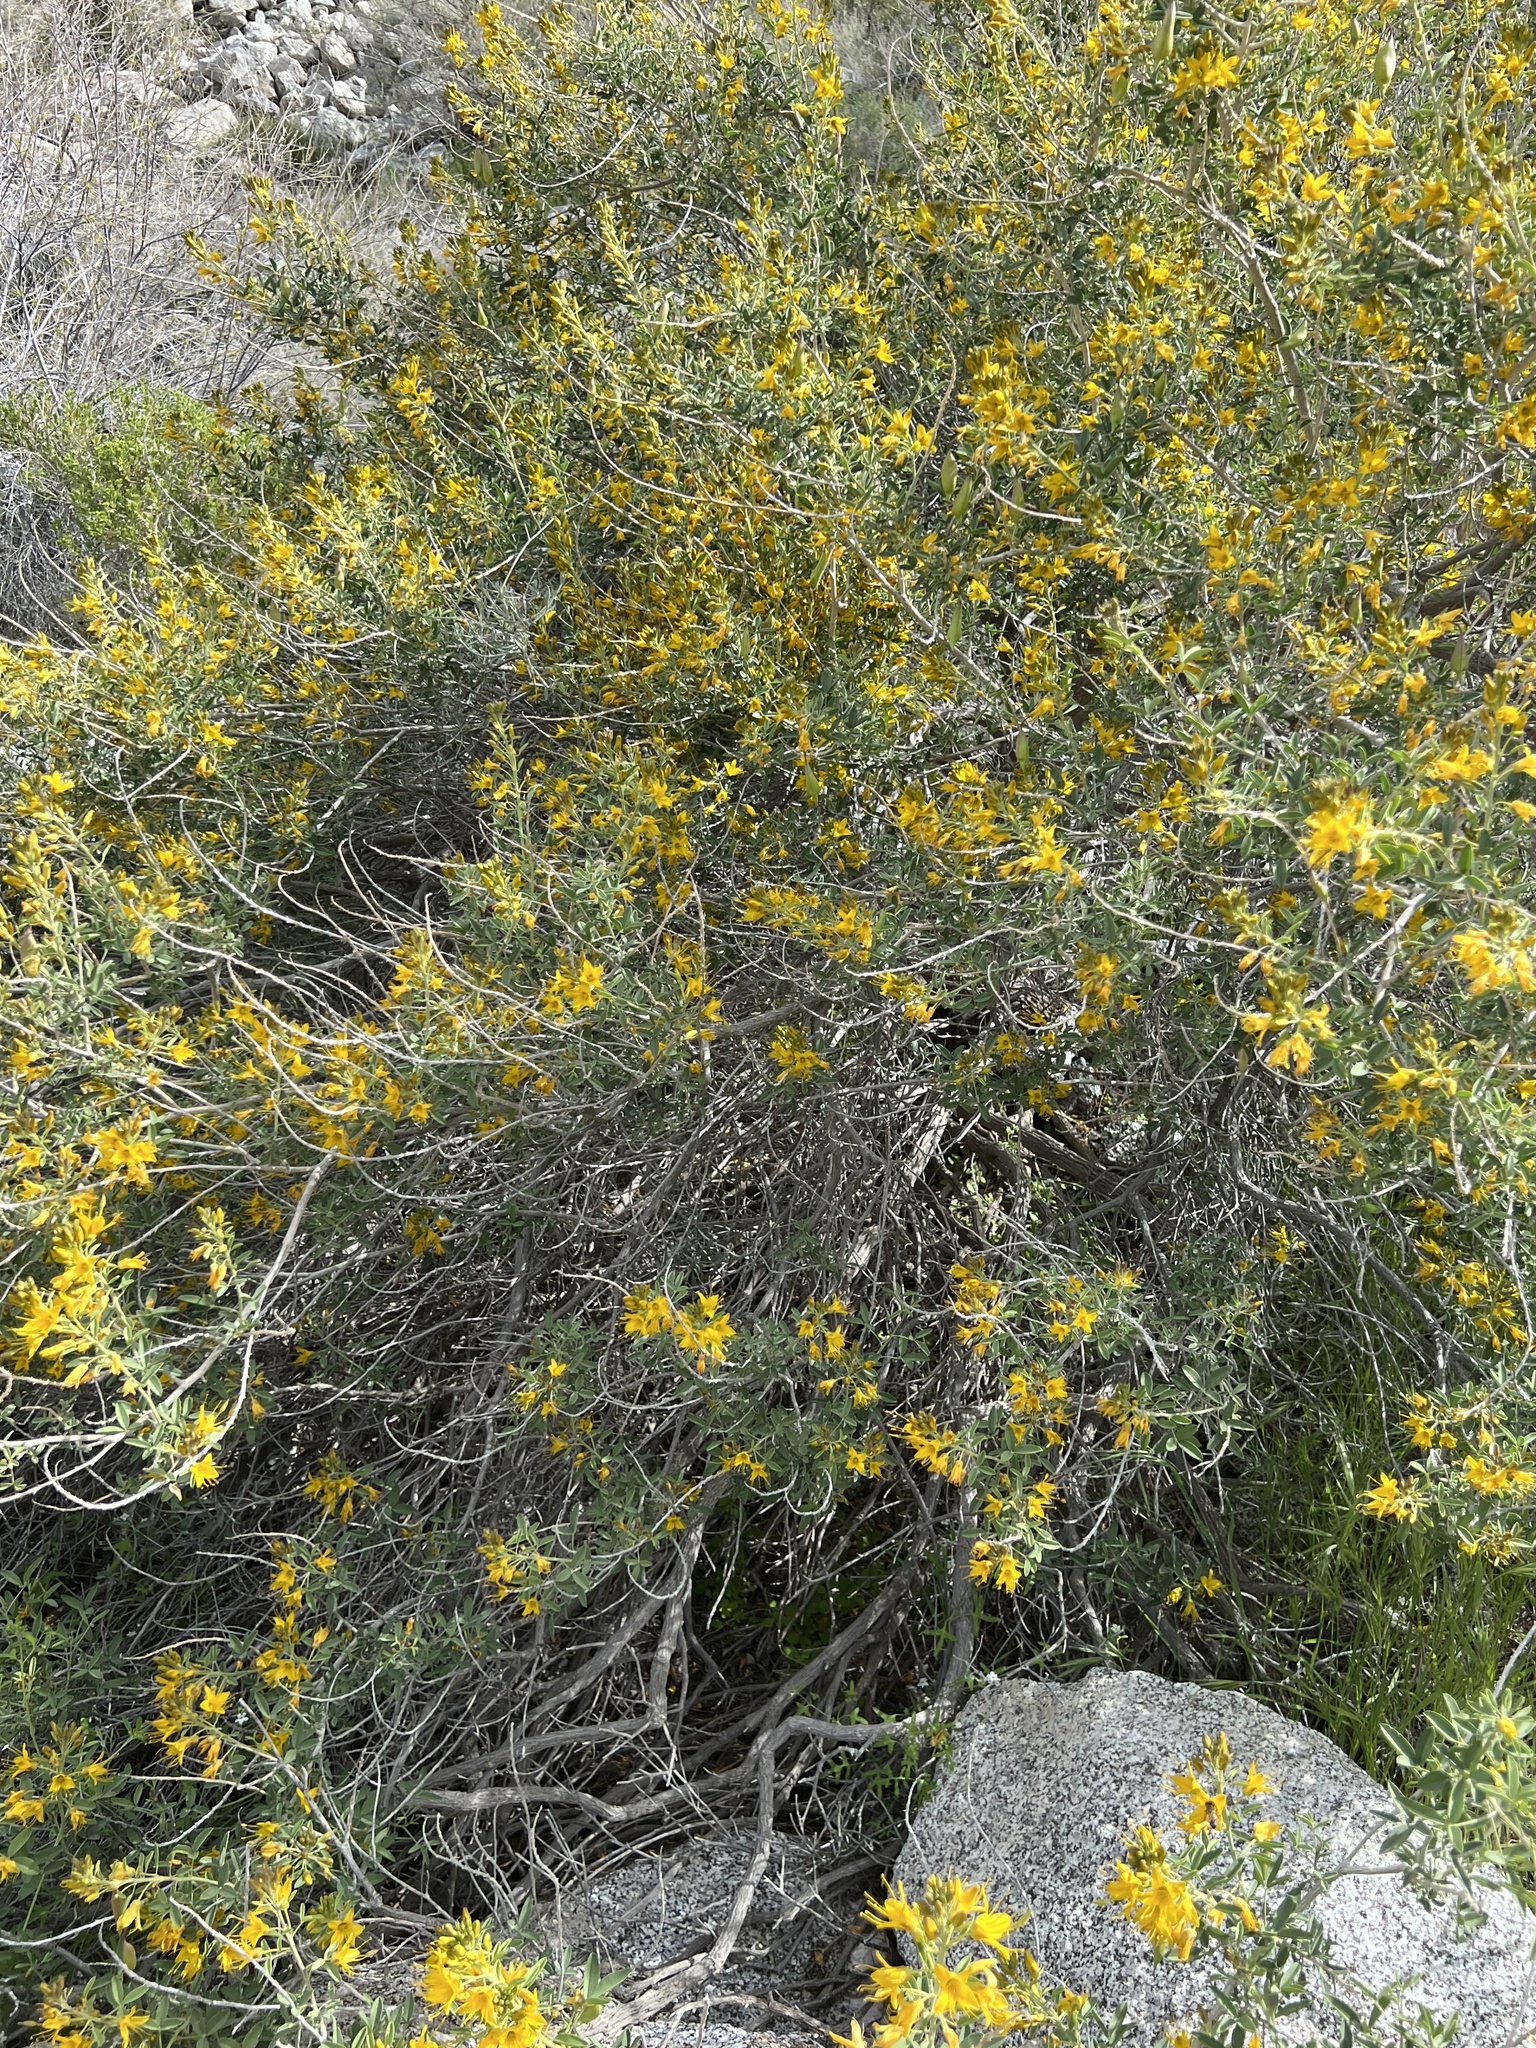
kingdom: Plantae
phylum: Tracheophyta
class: Magnoliopsida
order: Brassicales
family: Cleomaceae
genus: Cleomella
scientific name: Cleomella arborea
